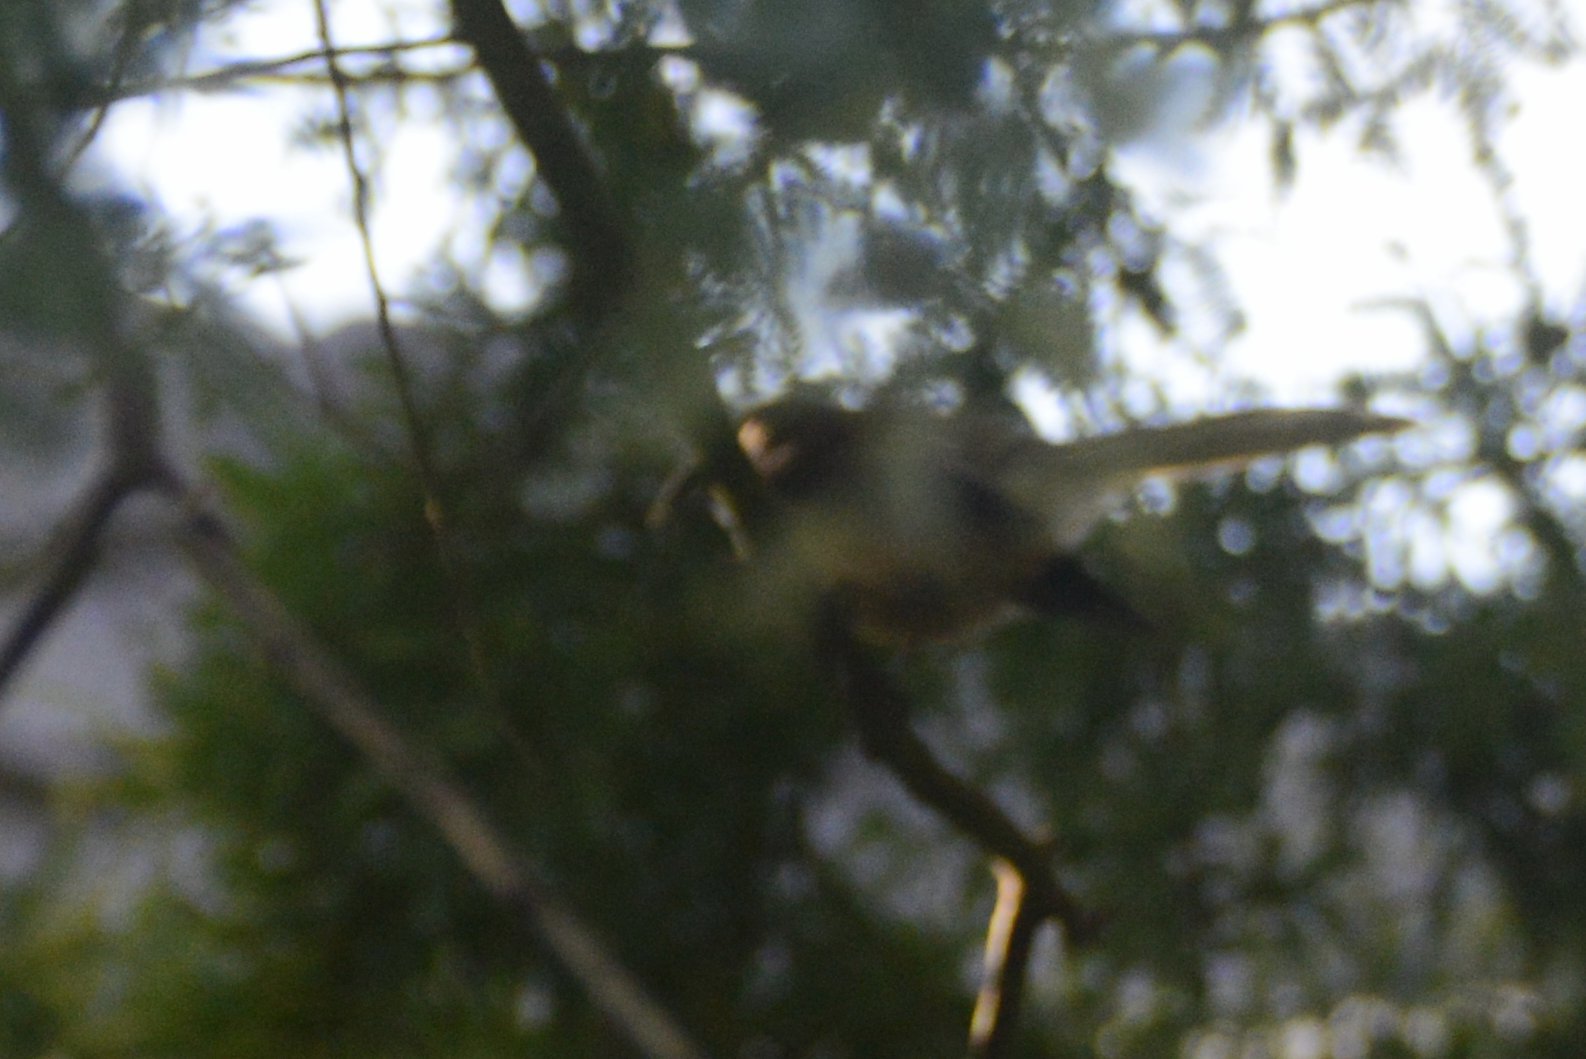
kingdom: Animalia
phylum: Chordata
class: Aves
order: Passeriformes
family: Rhipiduridae
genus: Rhipidura
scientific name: Rhipidura fuliginosa
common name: New zealand fantail
